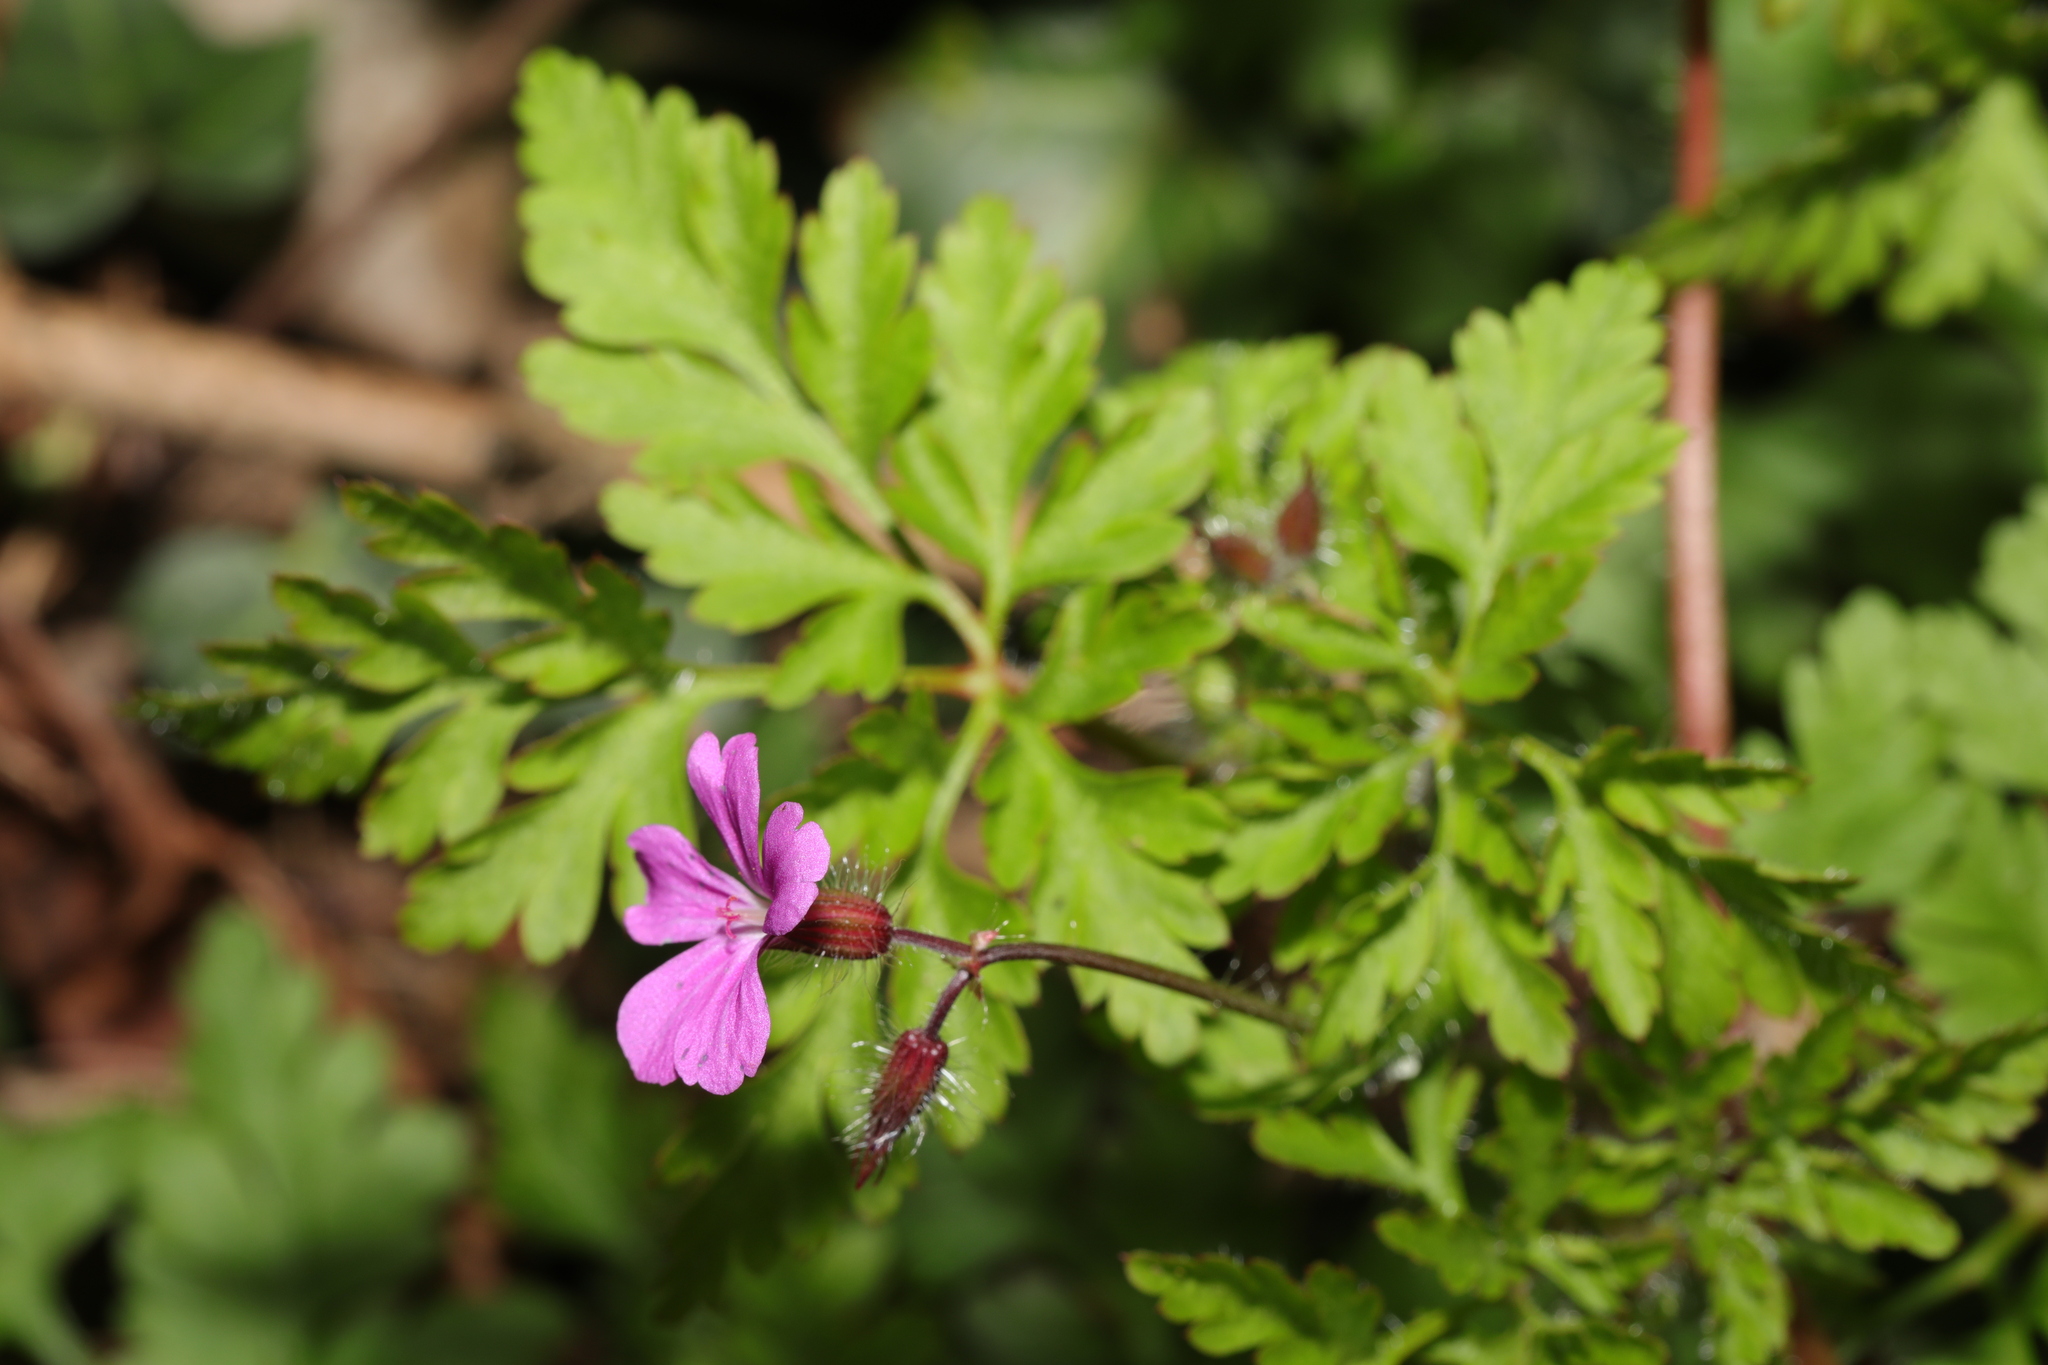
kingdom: Plantae
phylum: Tracheophyta
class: Magnoliopsida
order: Geraniales
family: Geraniaceae
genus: Geranium
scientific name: Geranium robertianum
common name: Herb-robert
